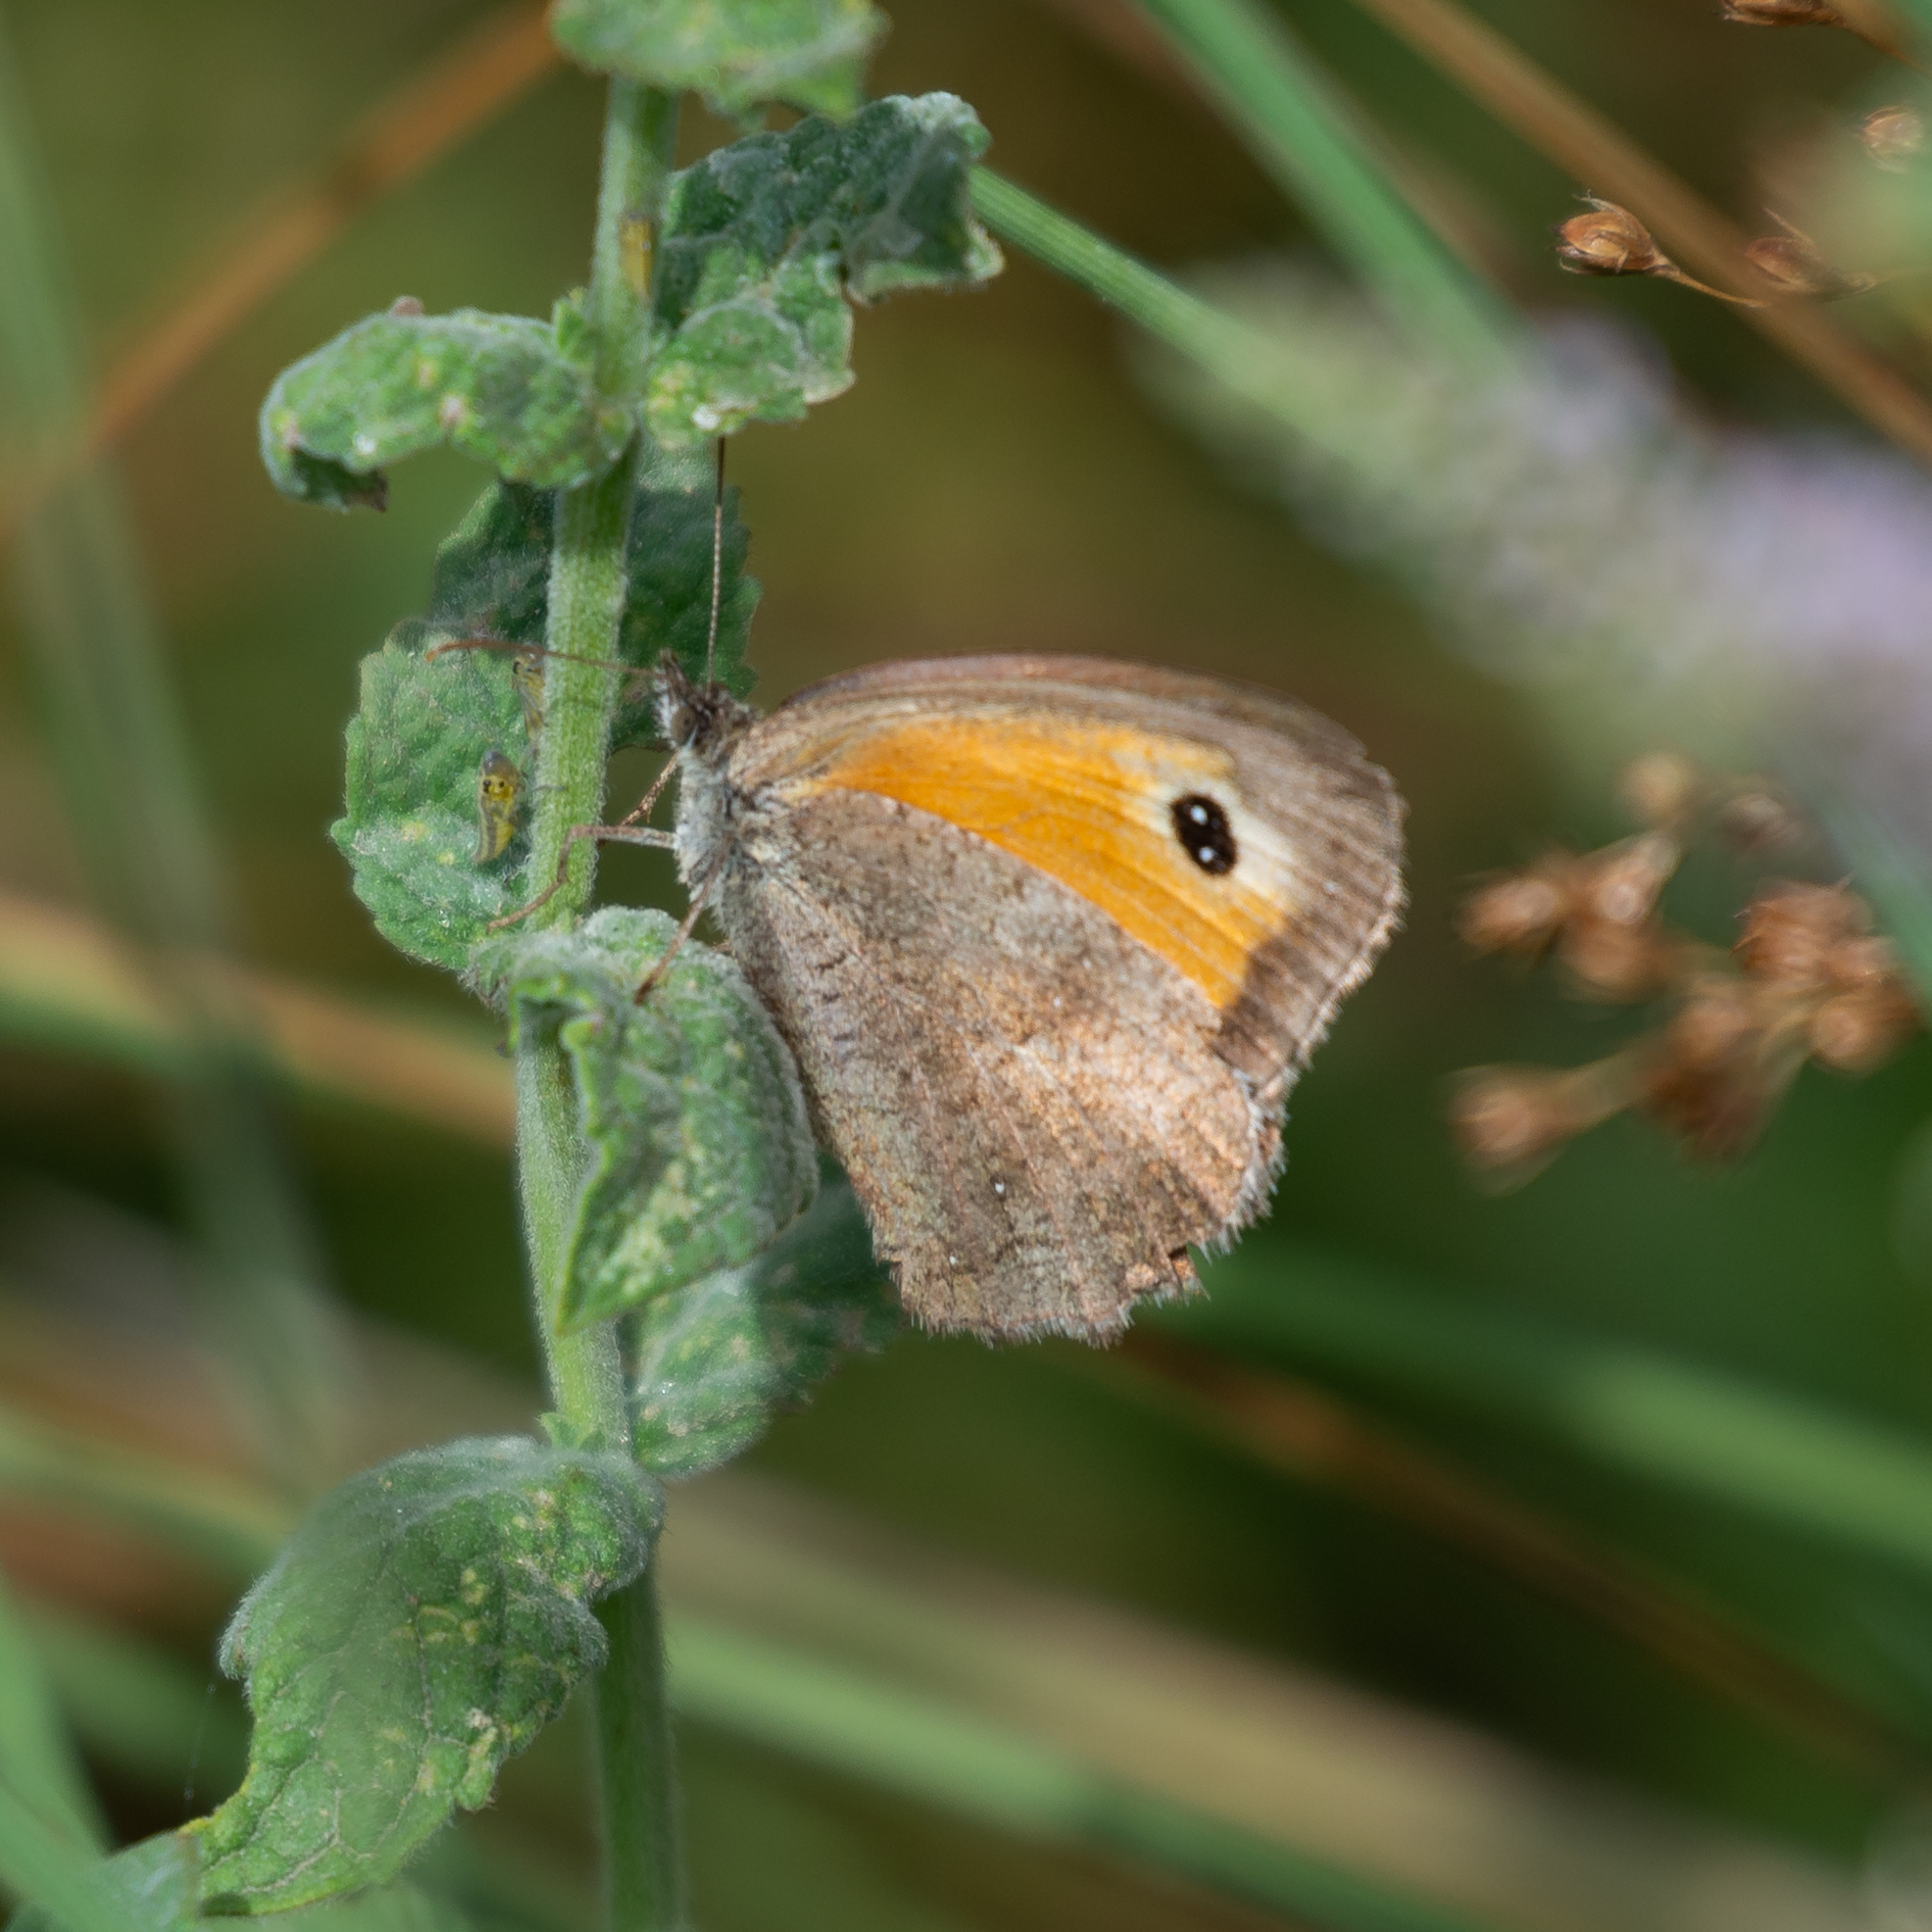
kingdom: Animalia
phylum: Arthropoda
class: Insecta
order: Lepidoptera
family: Nymphalidae
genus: Pyronia
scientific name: Pyronia tithonus
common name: Gatekeeper
